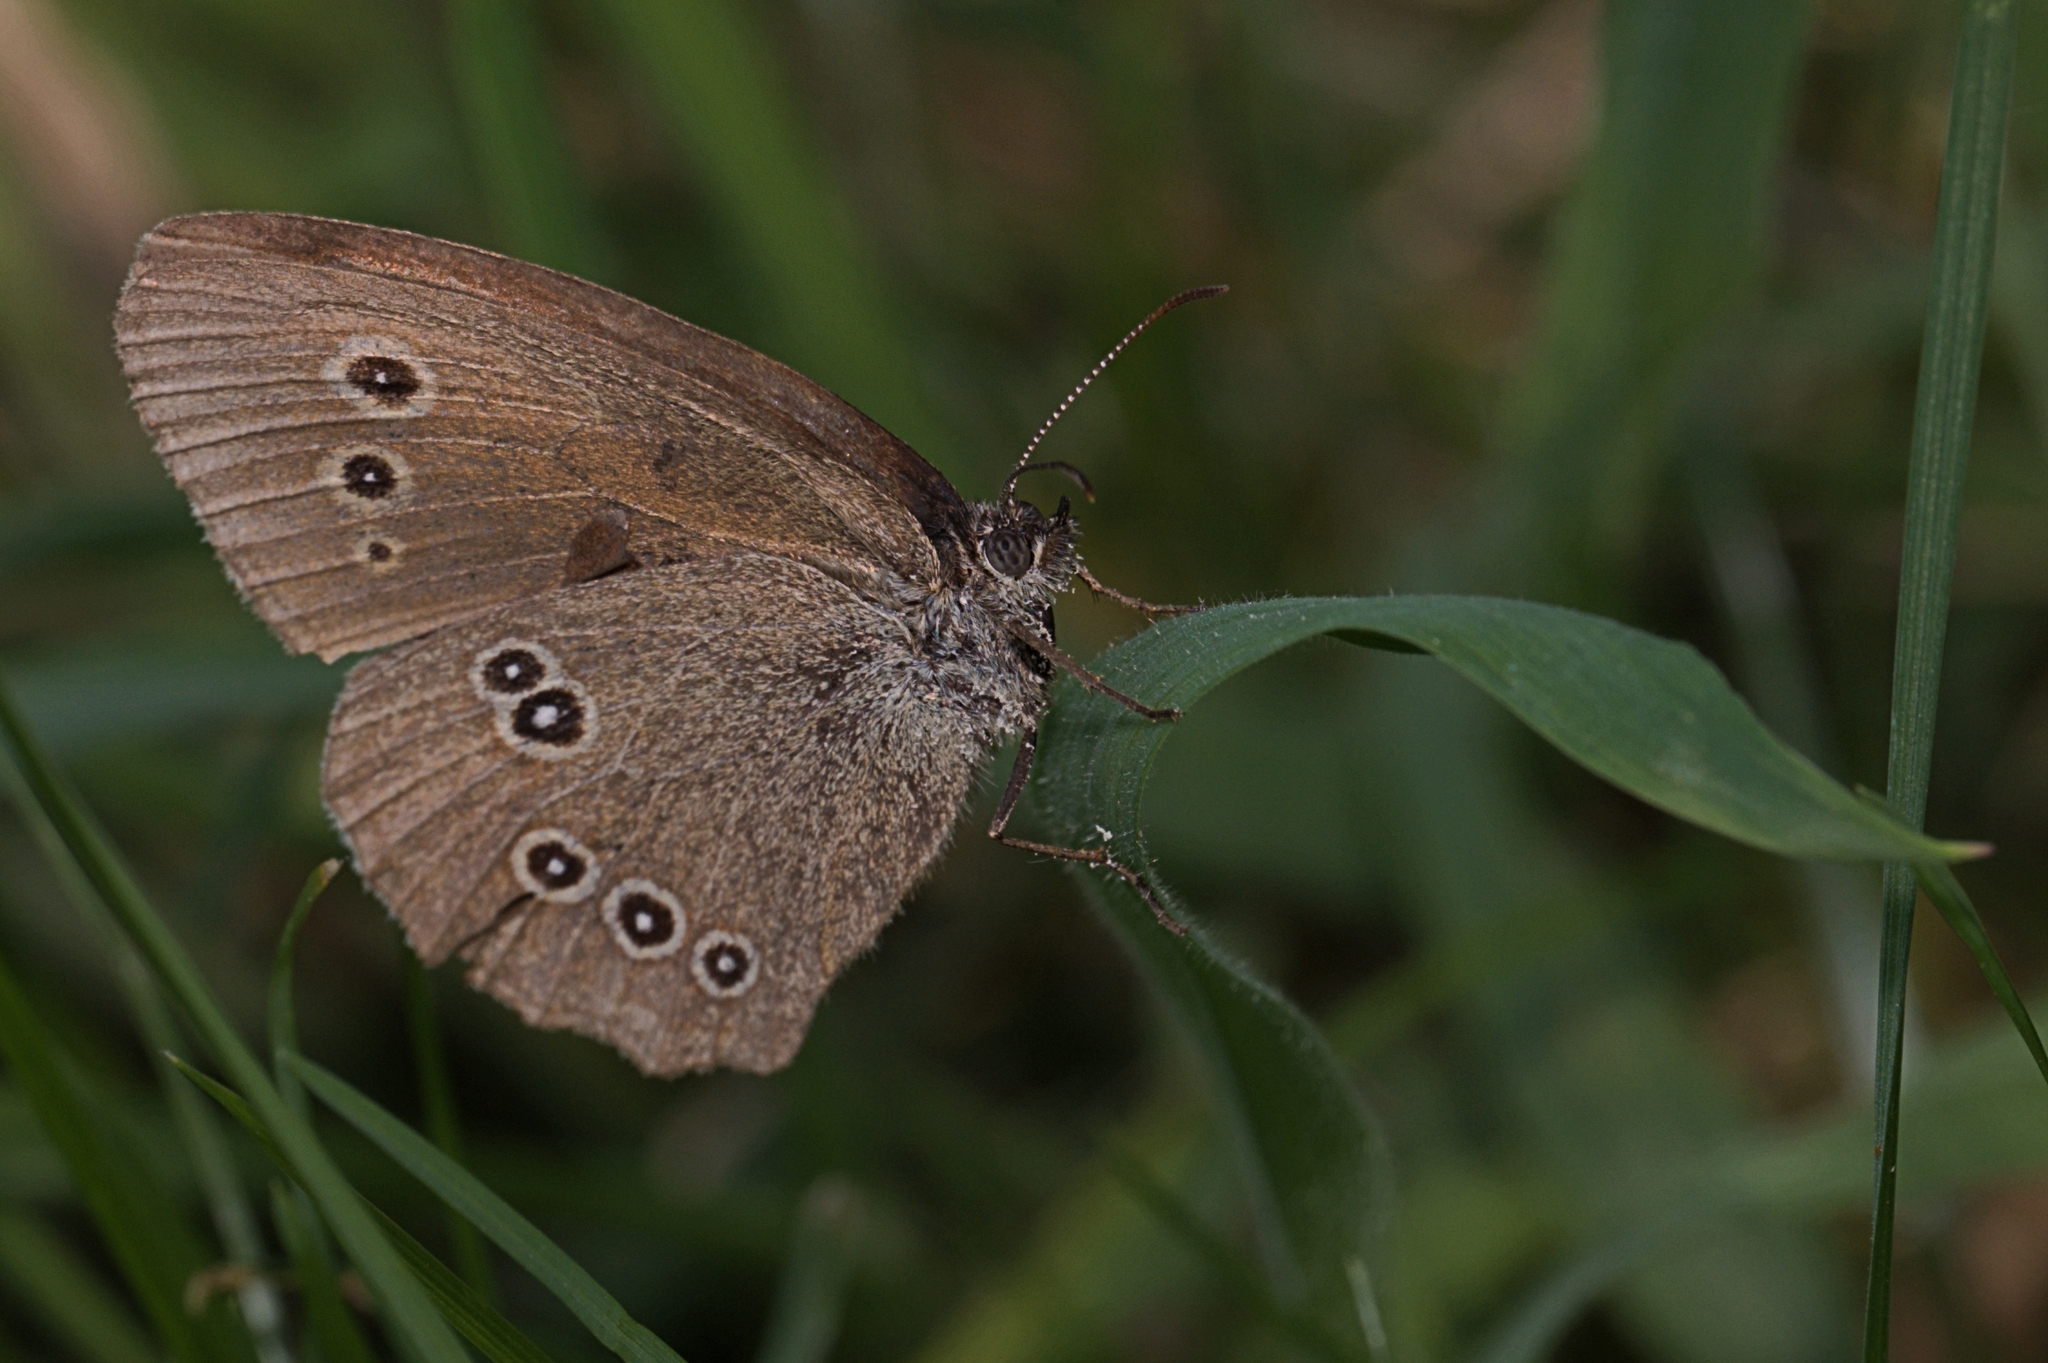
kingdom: Animalia
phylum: Arthropoda
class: Insecta
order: Lepidoptera
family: Nymphalidae
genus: Aphantopus
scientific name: Aphantopus hyperantus
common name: Ringlet
